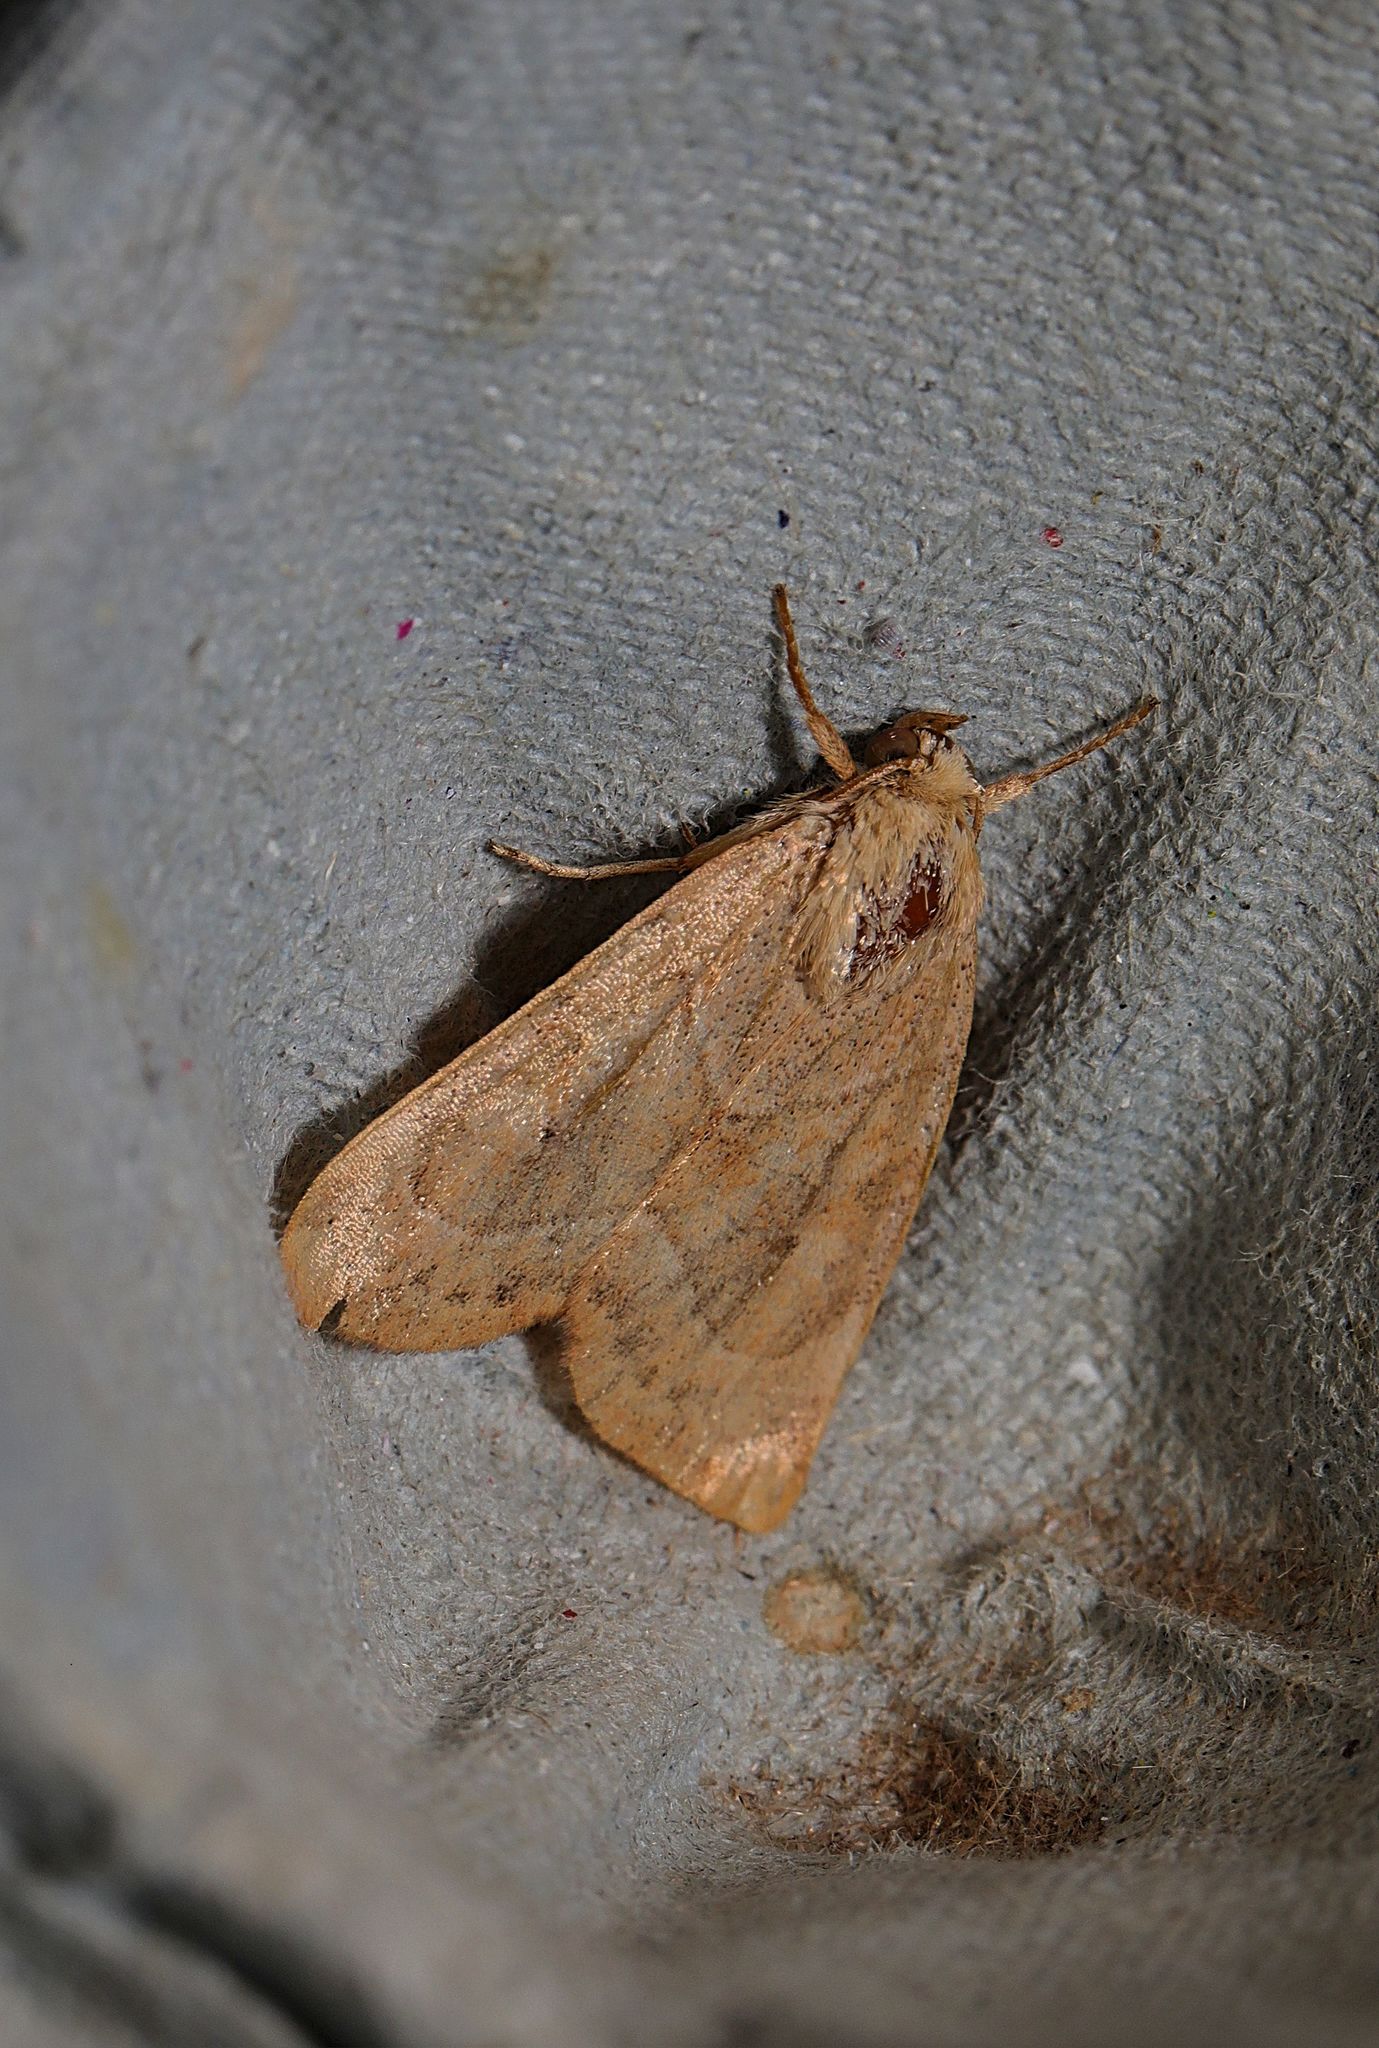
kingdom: Animalia
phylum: Arthropoda
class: Insecta
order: Lepidoptera
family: Noctuidae
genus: Cosmia
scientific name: Cosmia trapezina
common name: Dun-bar
